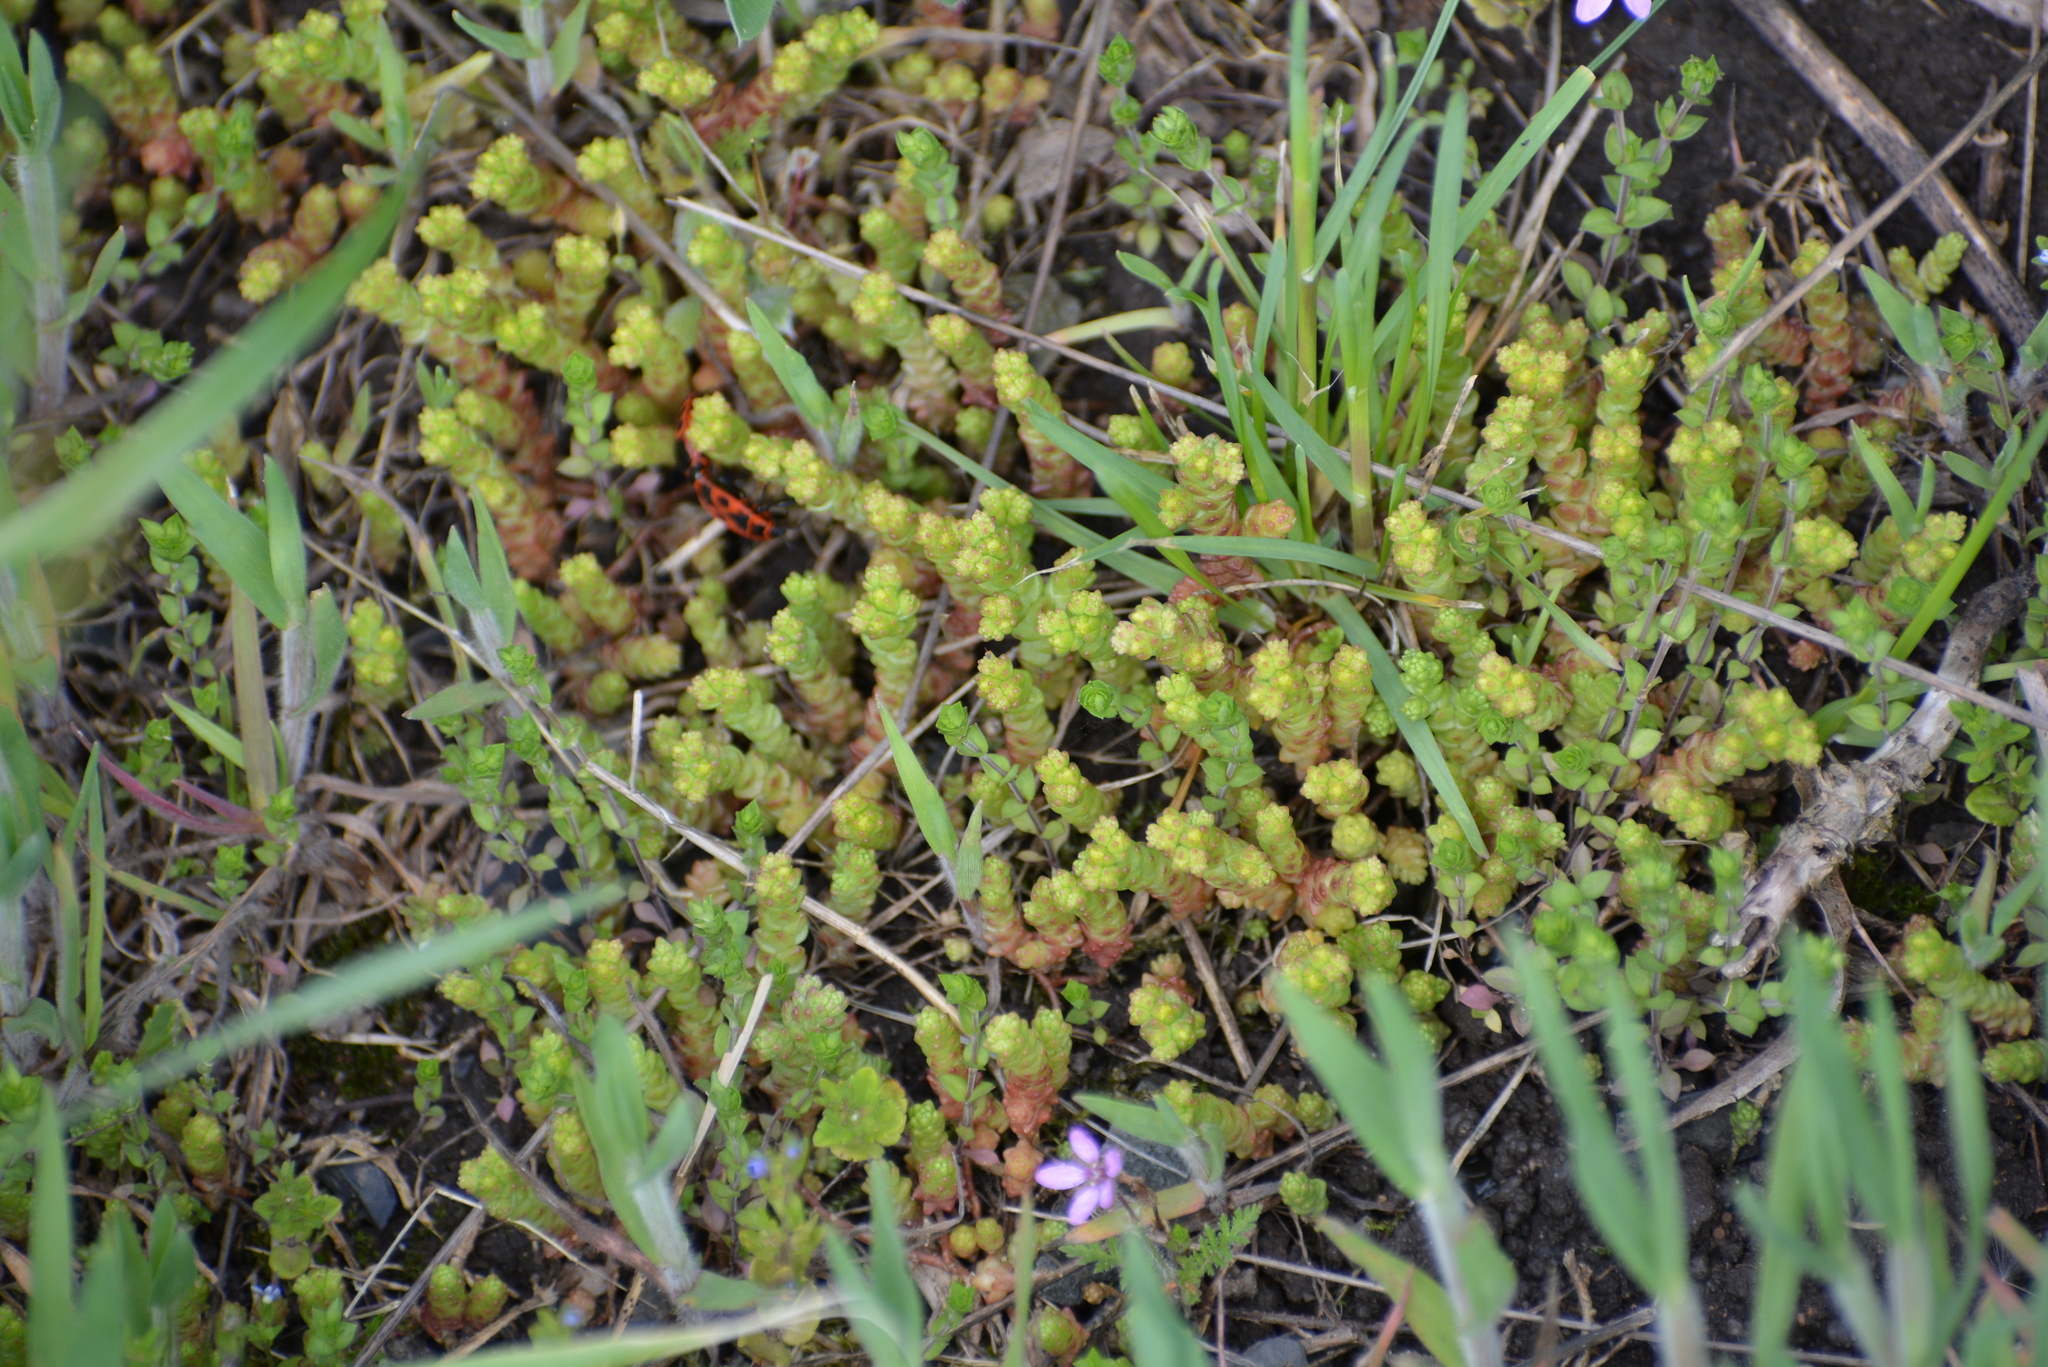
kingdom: Plantae
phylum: Tracheophyta
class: Magnoliopsida
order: Saxifragales
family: Crassulaceae
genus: Sedum
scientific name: Sedum acre
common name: Biting stonecrop
